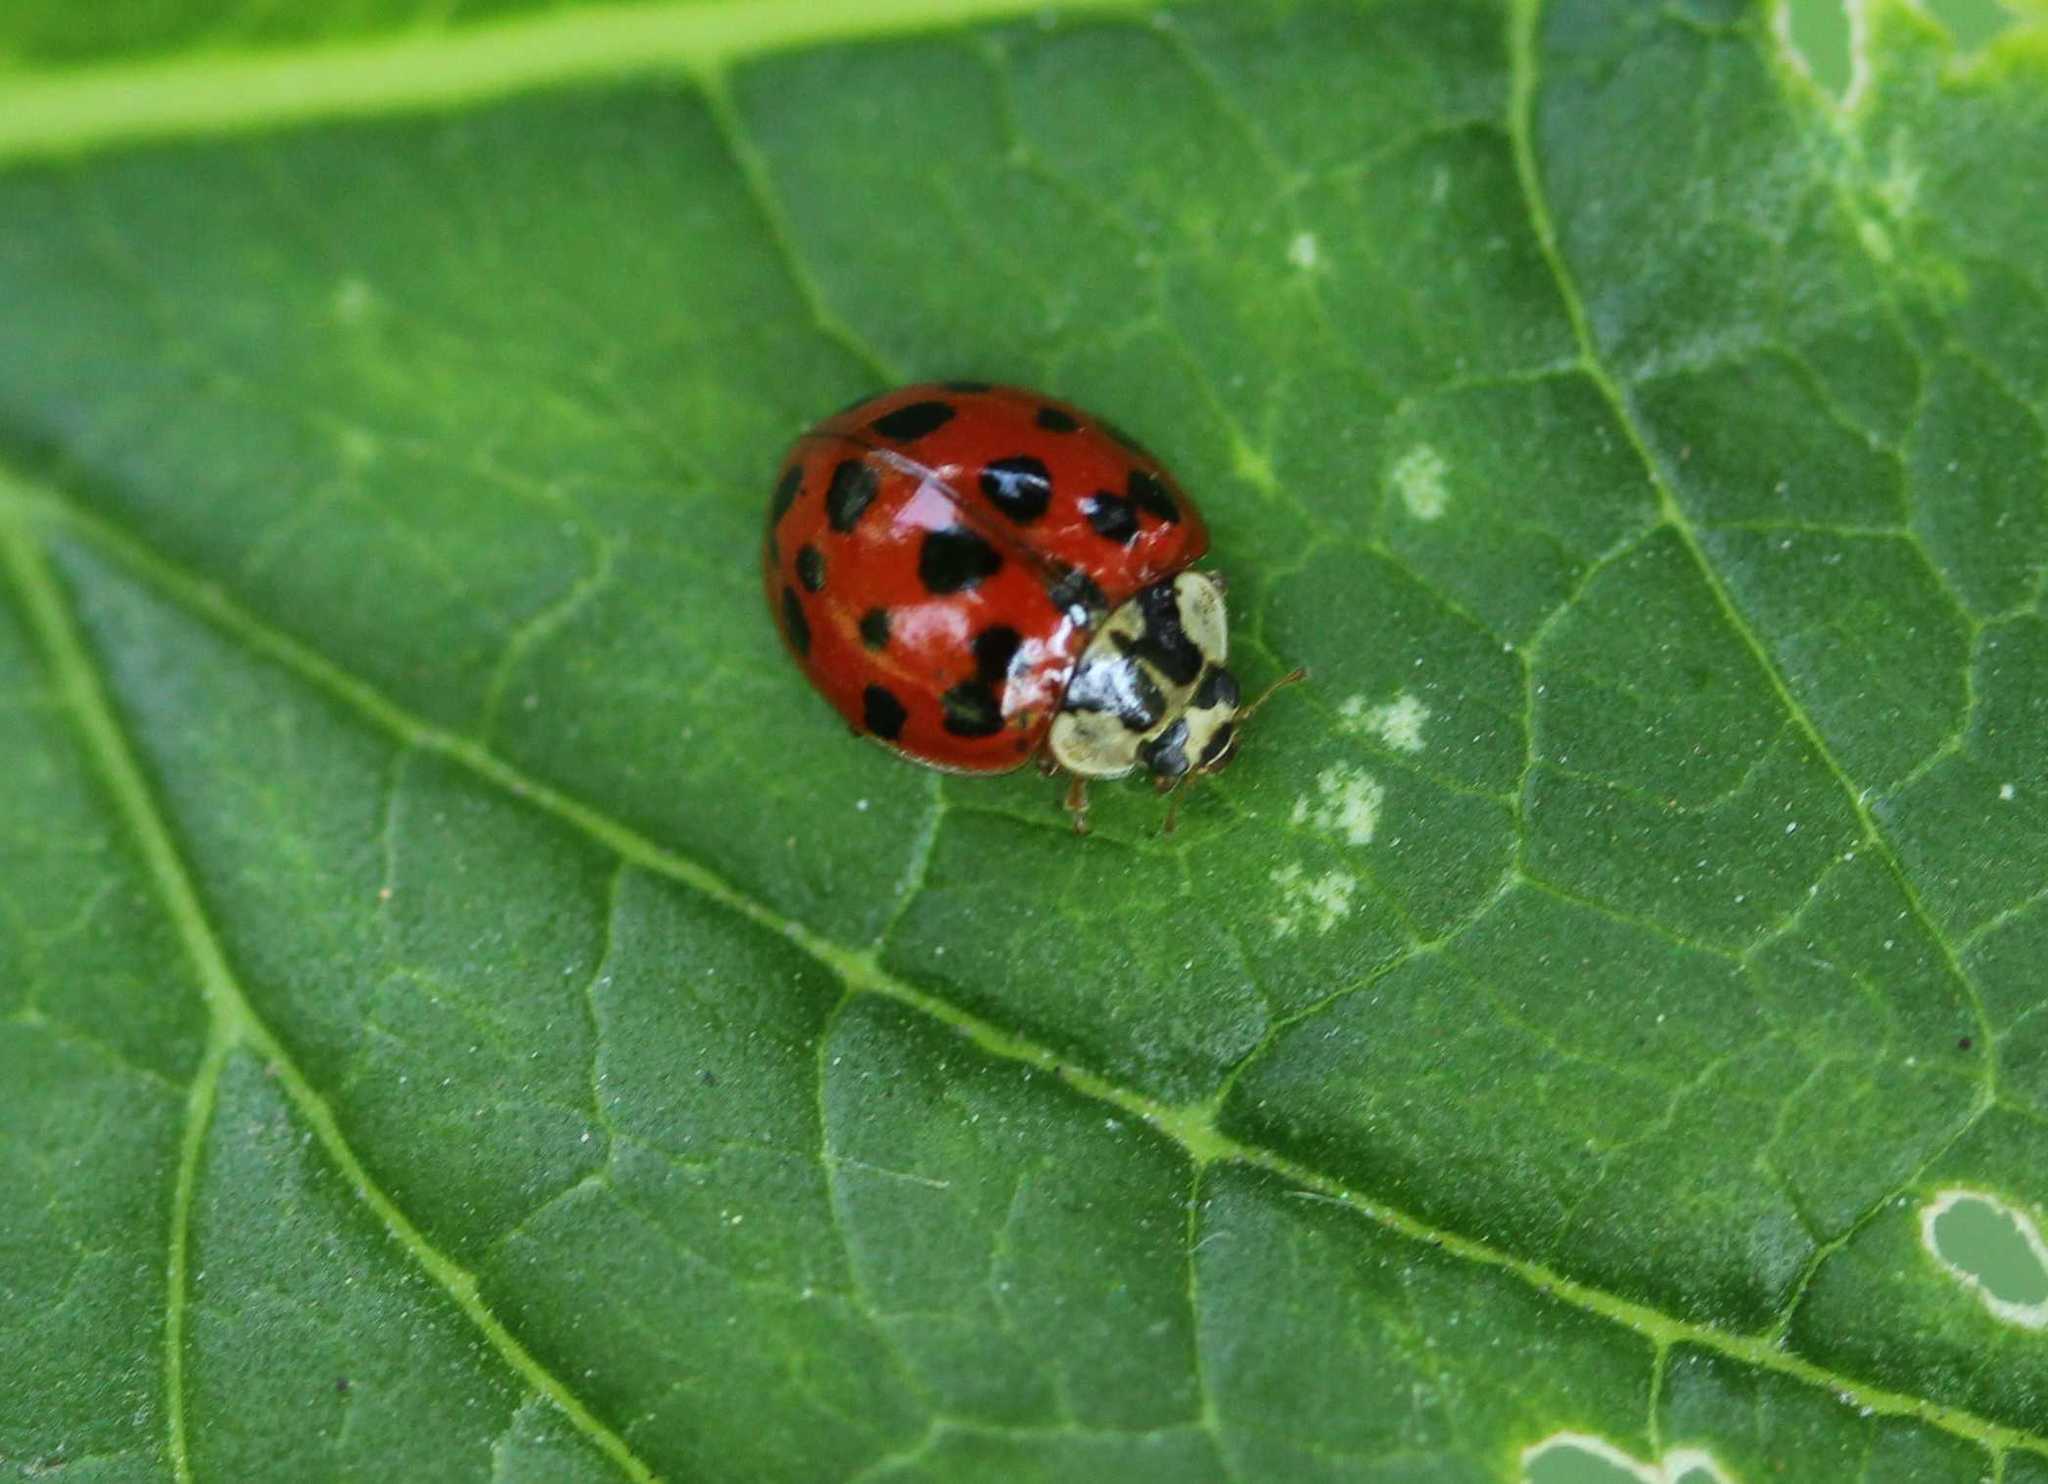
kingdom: Animalia
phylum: Arthropoda
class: Insecta
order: Coleoptera
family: Coccinellidae
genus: Harmonia
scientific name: Harmonia axyridis
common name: Harlequin ladybird
